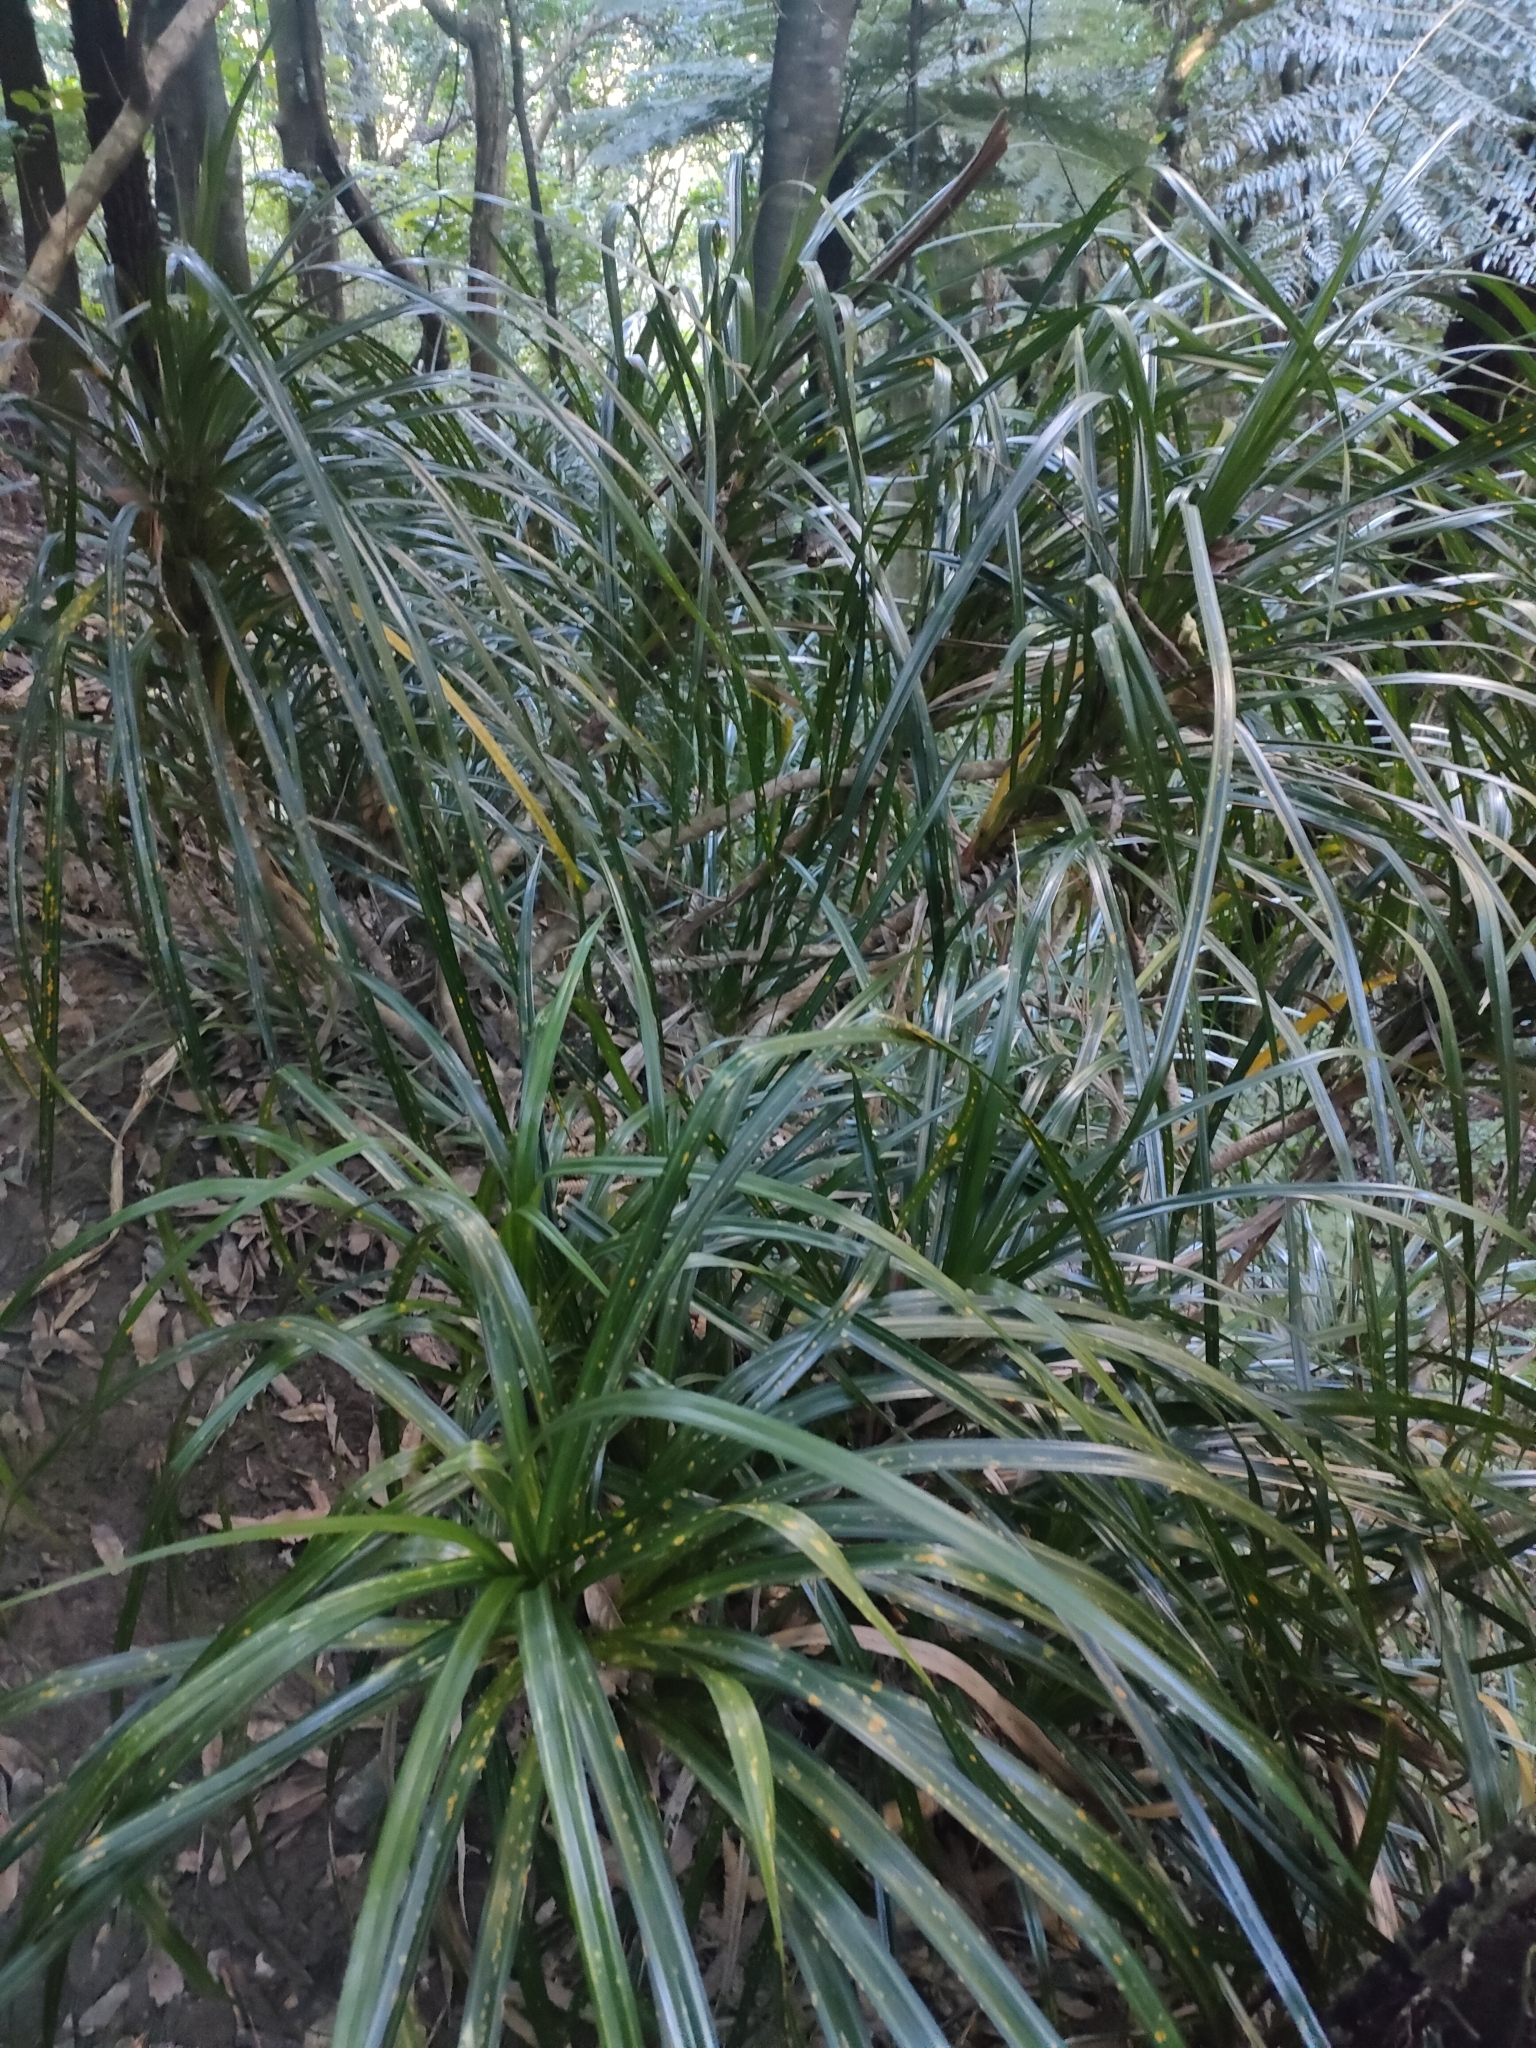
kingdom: Plantae
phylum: Tracheophyta
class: Liliopsida
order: Pandanales
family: Pandanaceae
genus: Freycinetia
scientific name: Freycinetia banksii
